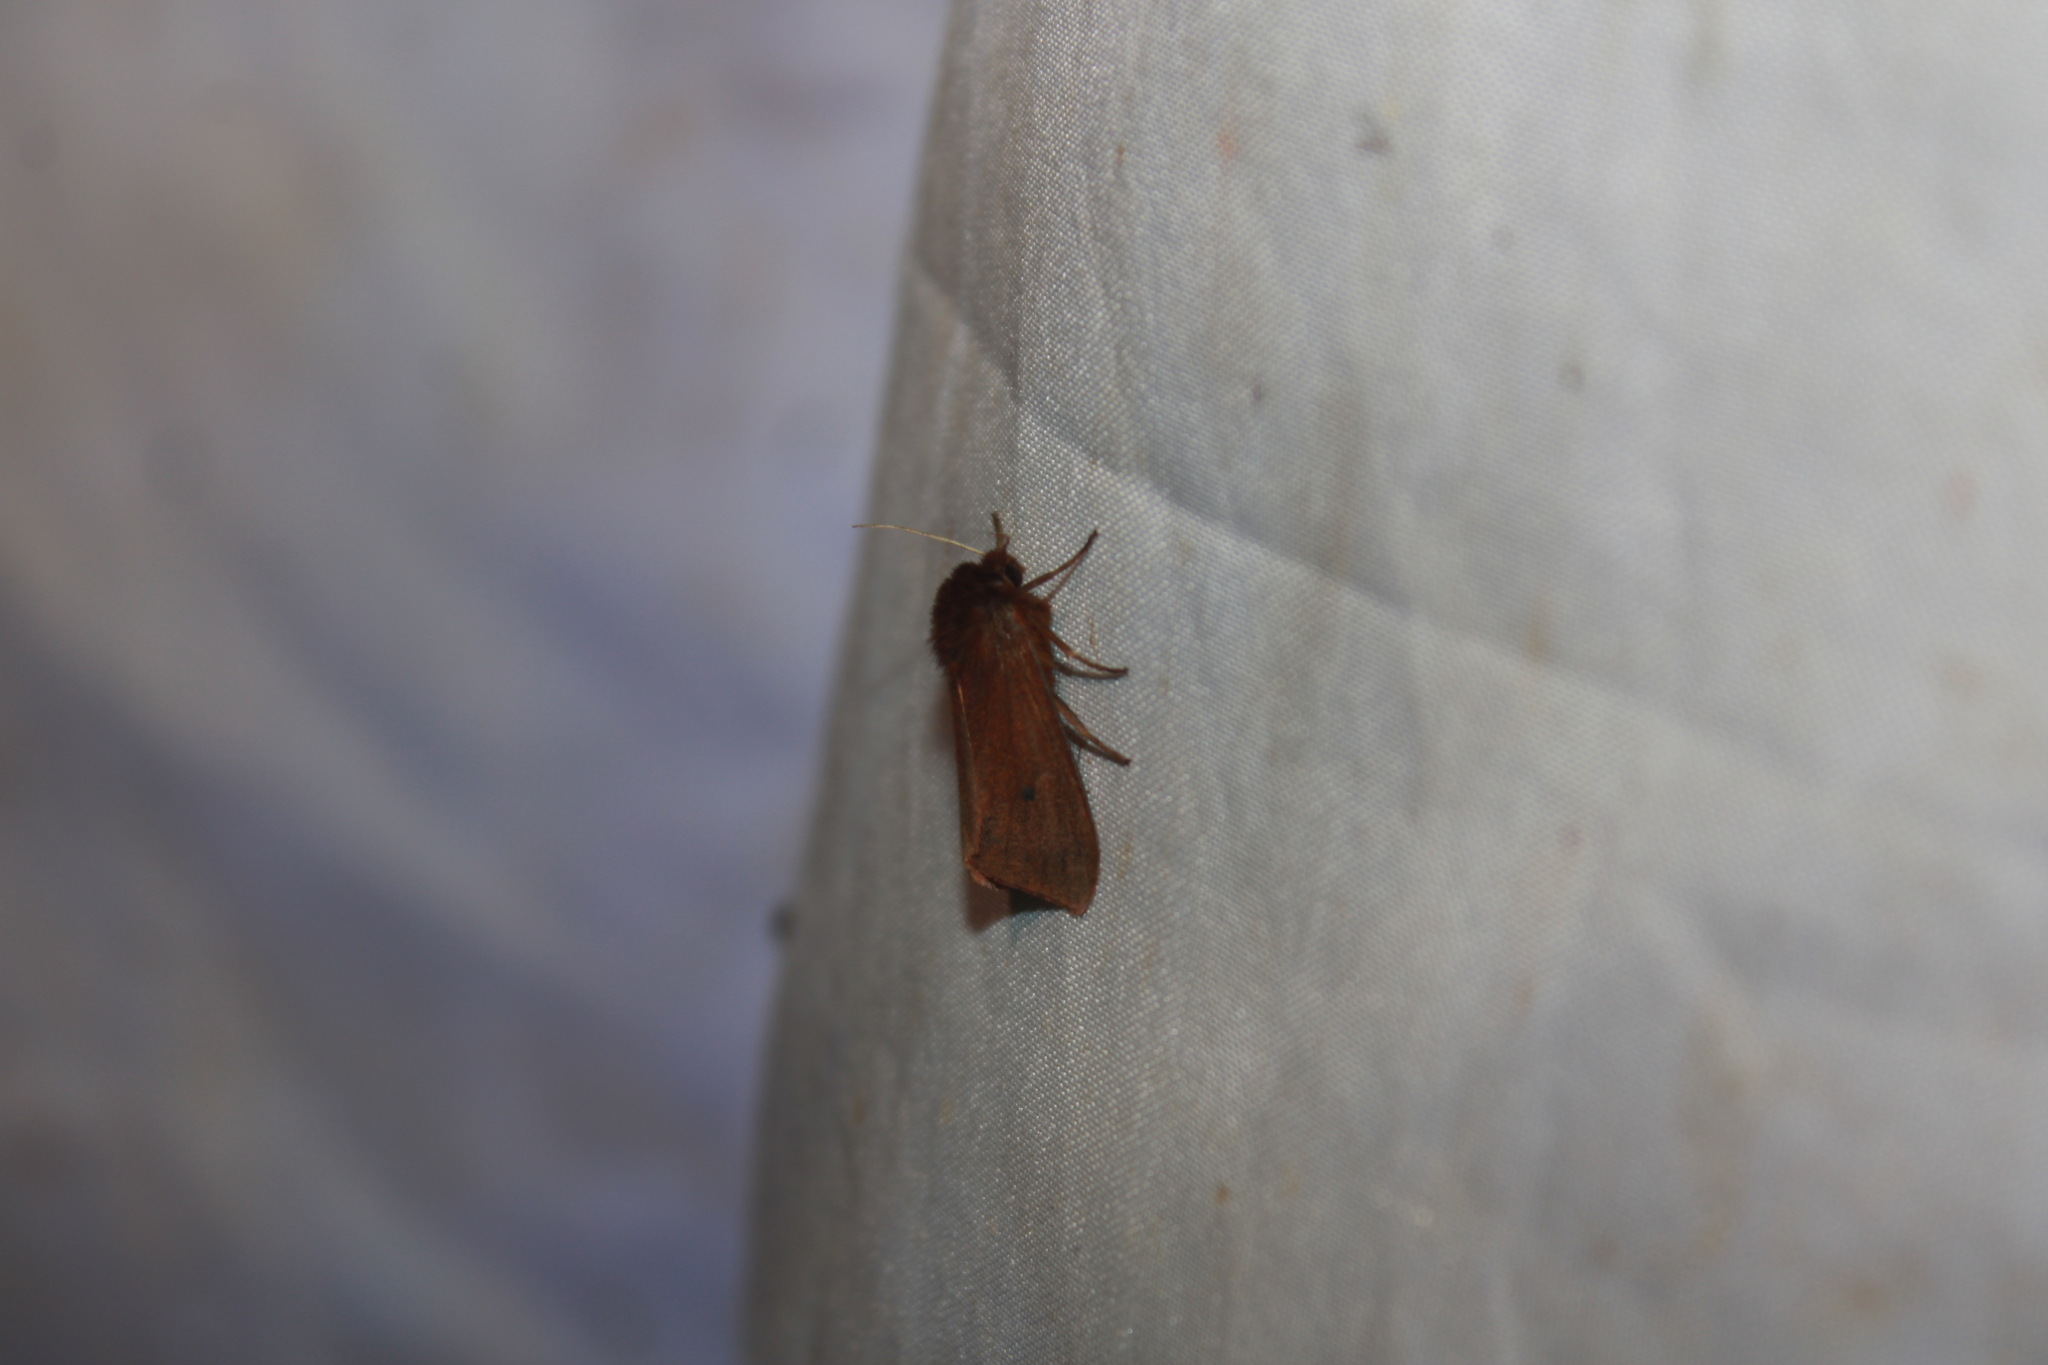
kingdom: Animalia
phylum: Arthropoda
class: Insecta
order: Lepidoptera
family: Erebidae
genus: Phragmatobia
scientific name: Phragmatobia fuliginosa
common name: Ruby tiger
